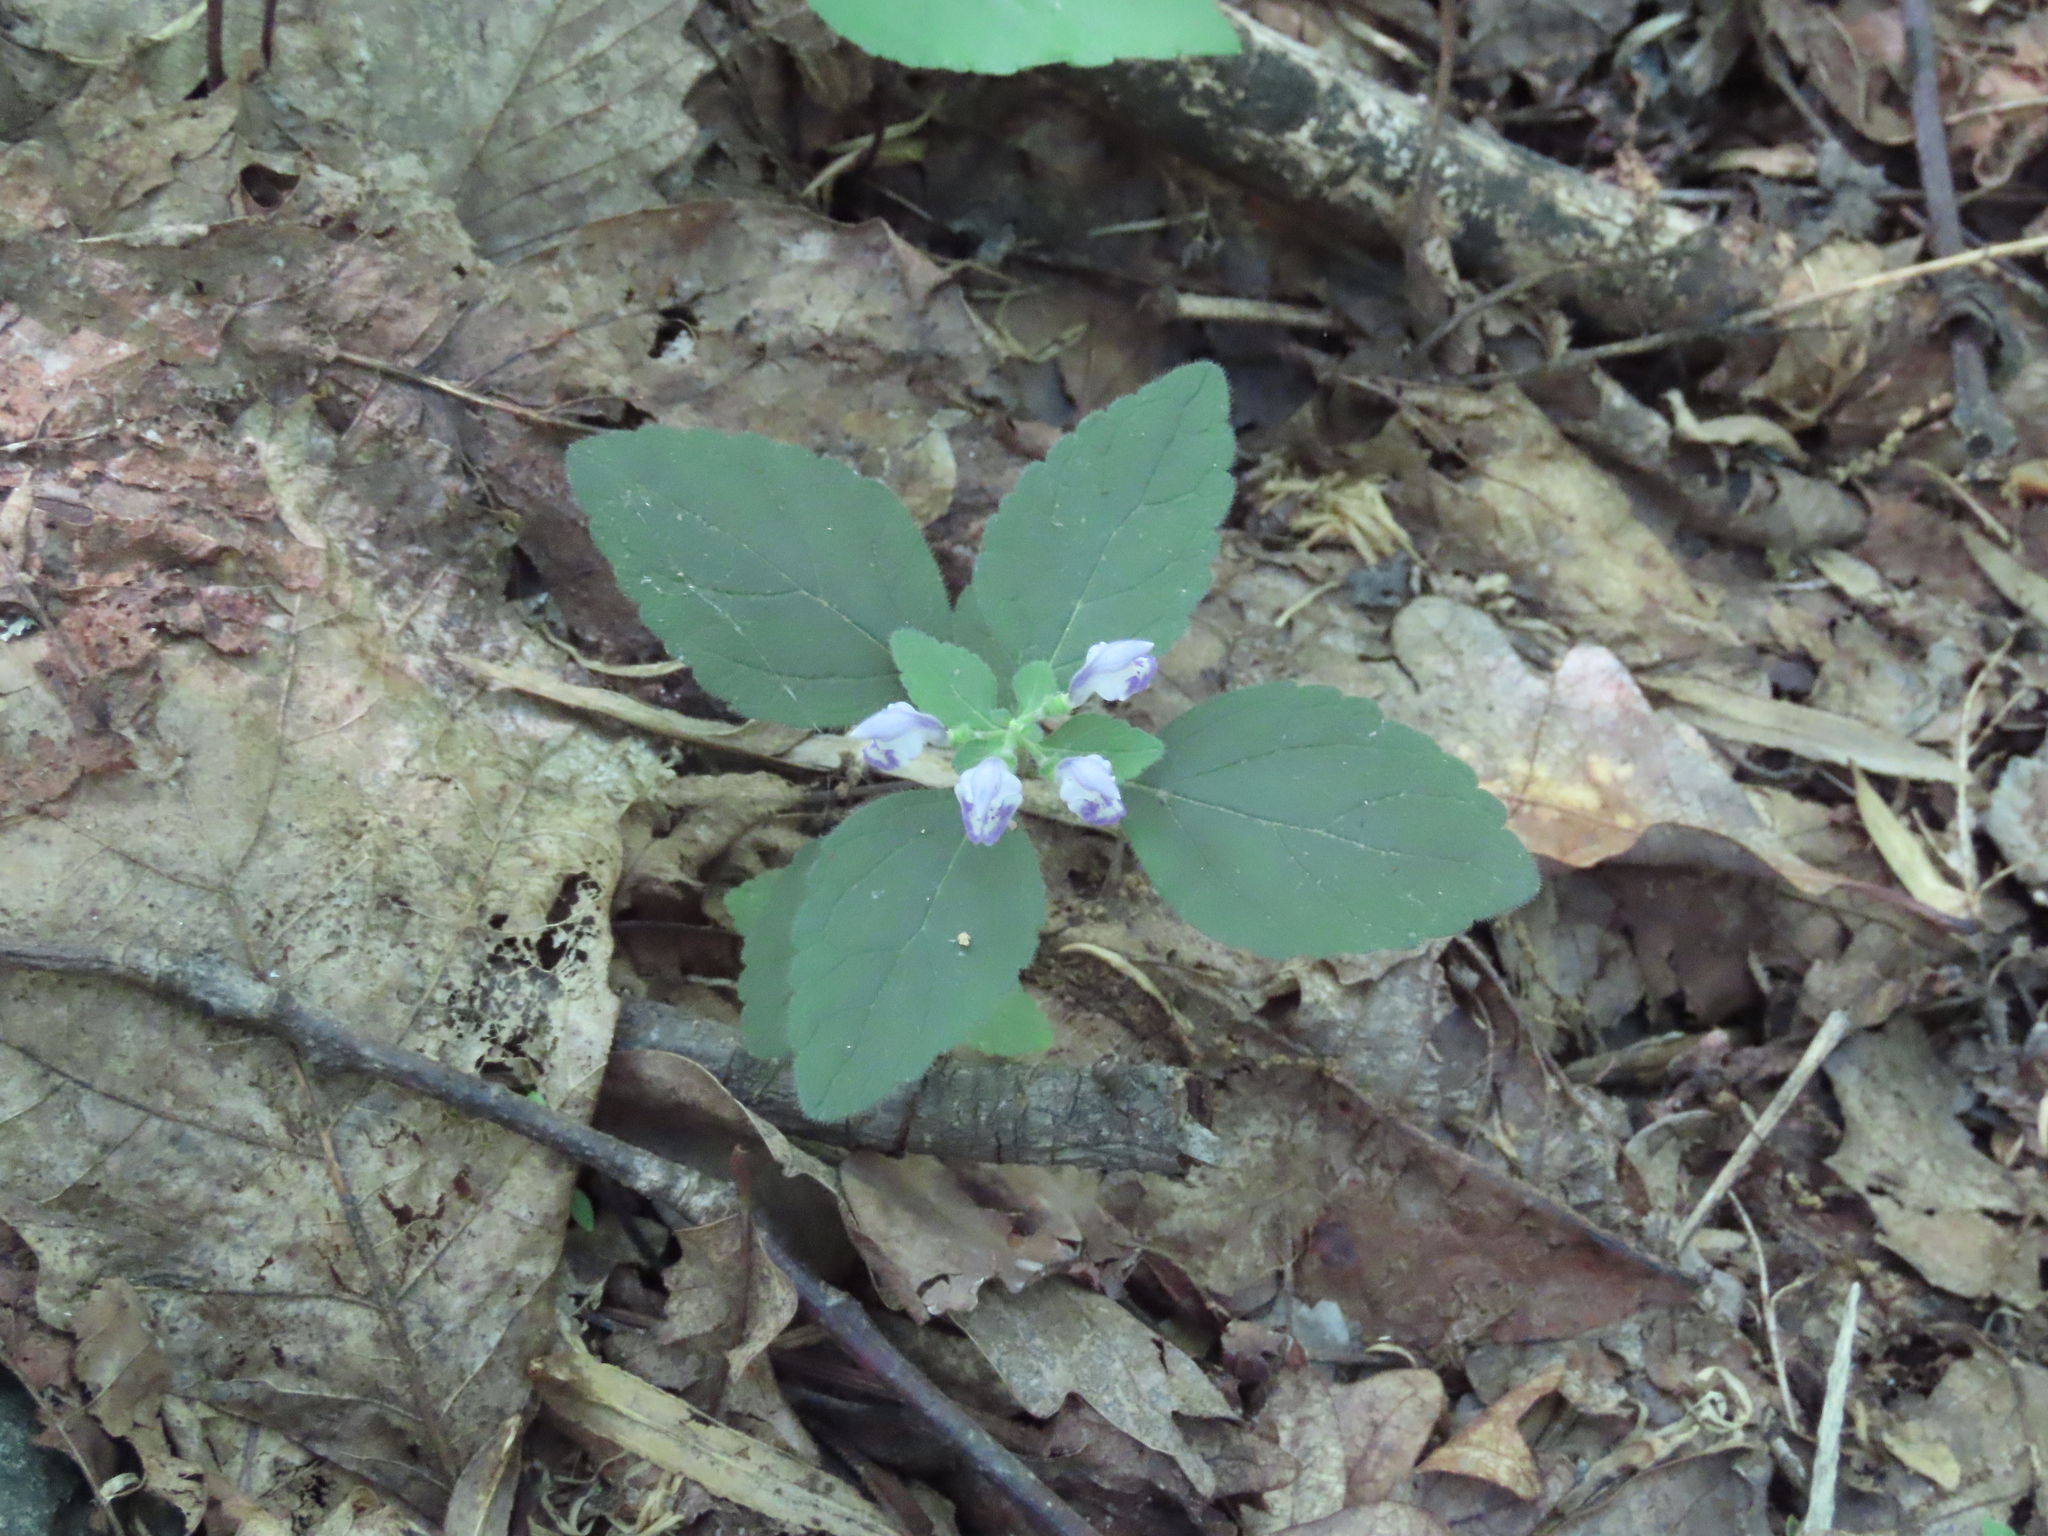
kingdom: Plantae
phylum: Tracheophyta
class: Magnoliopsida
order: Lamiales
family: Lamiaceae
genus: Scutellaria
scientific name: Scutellaria elliptica
